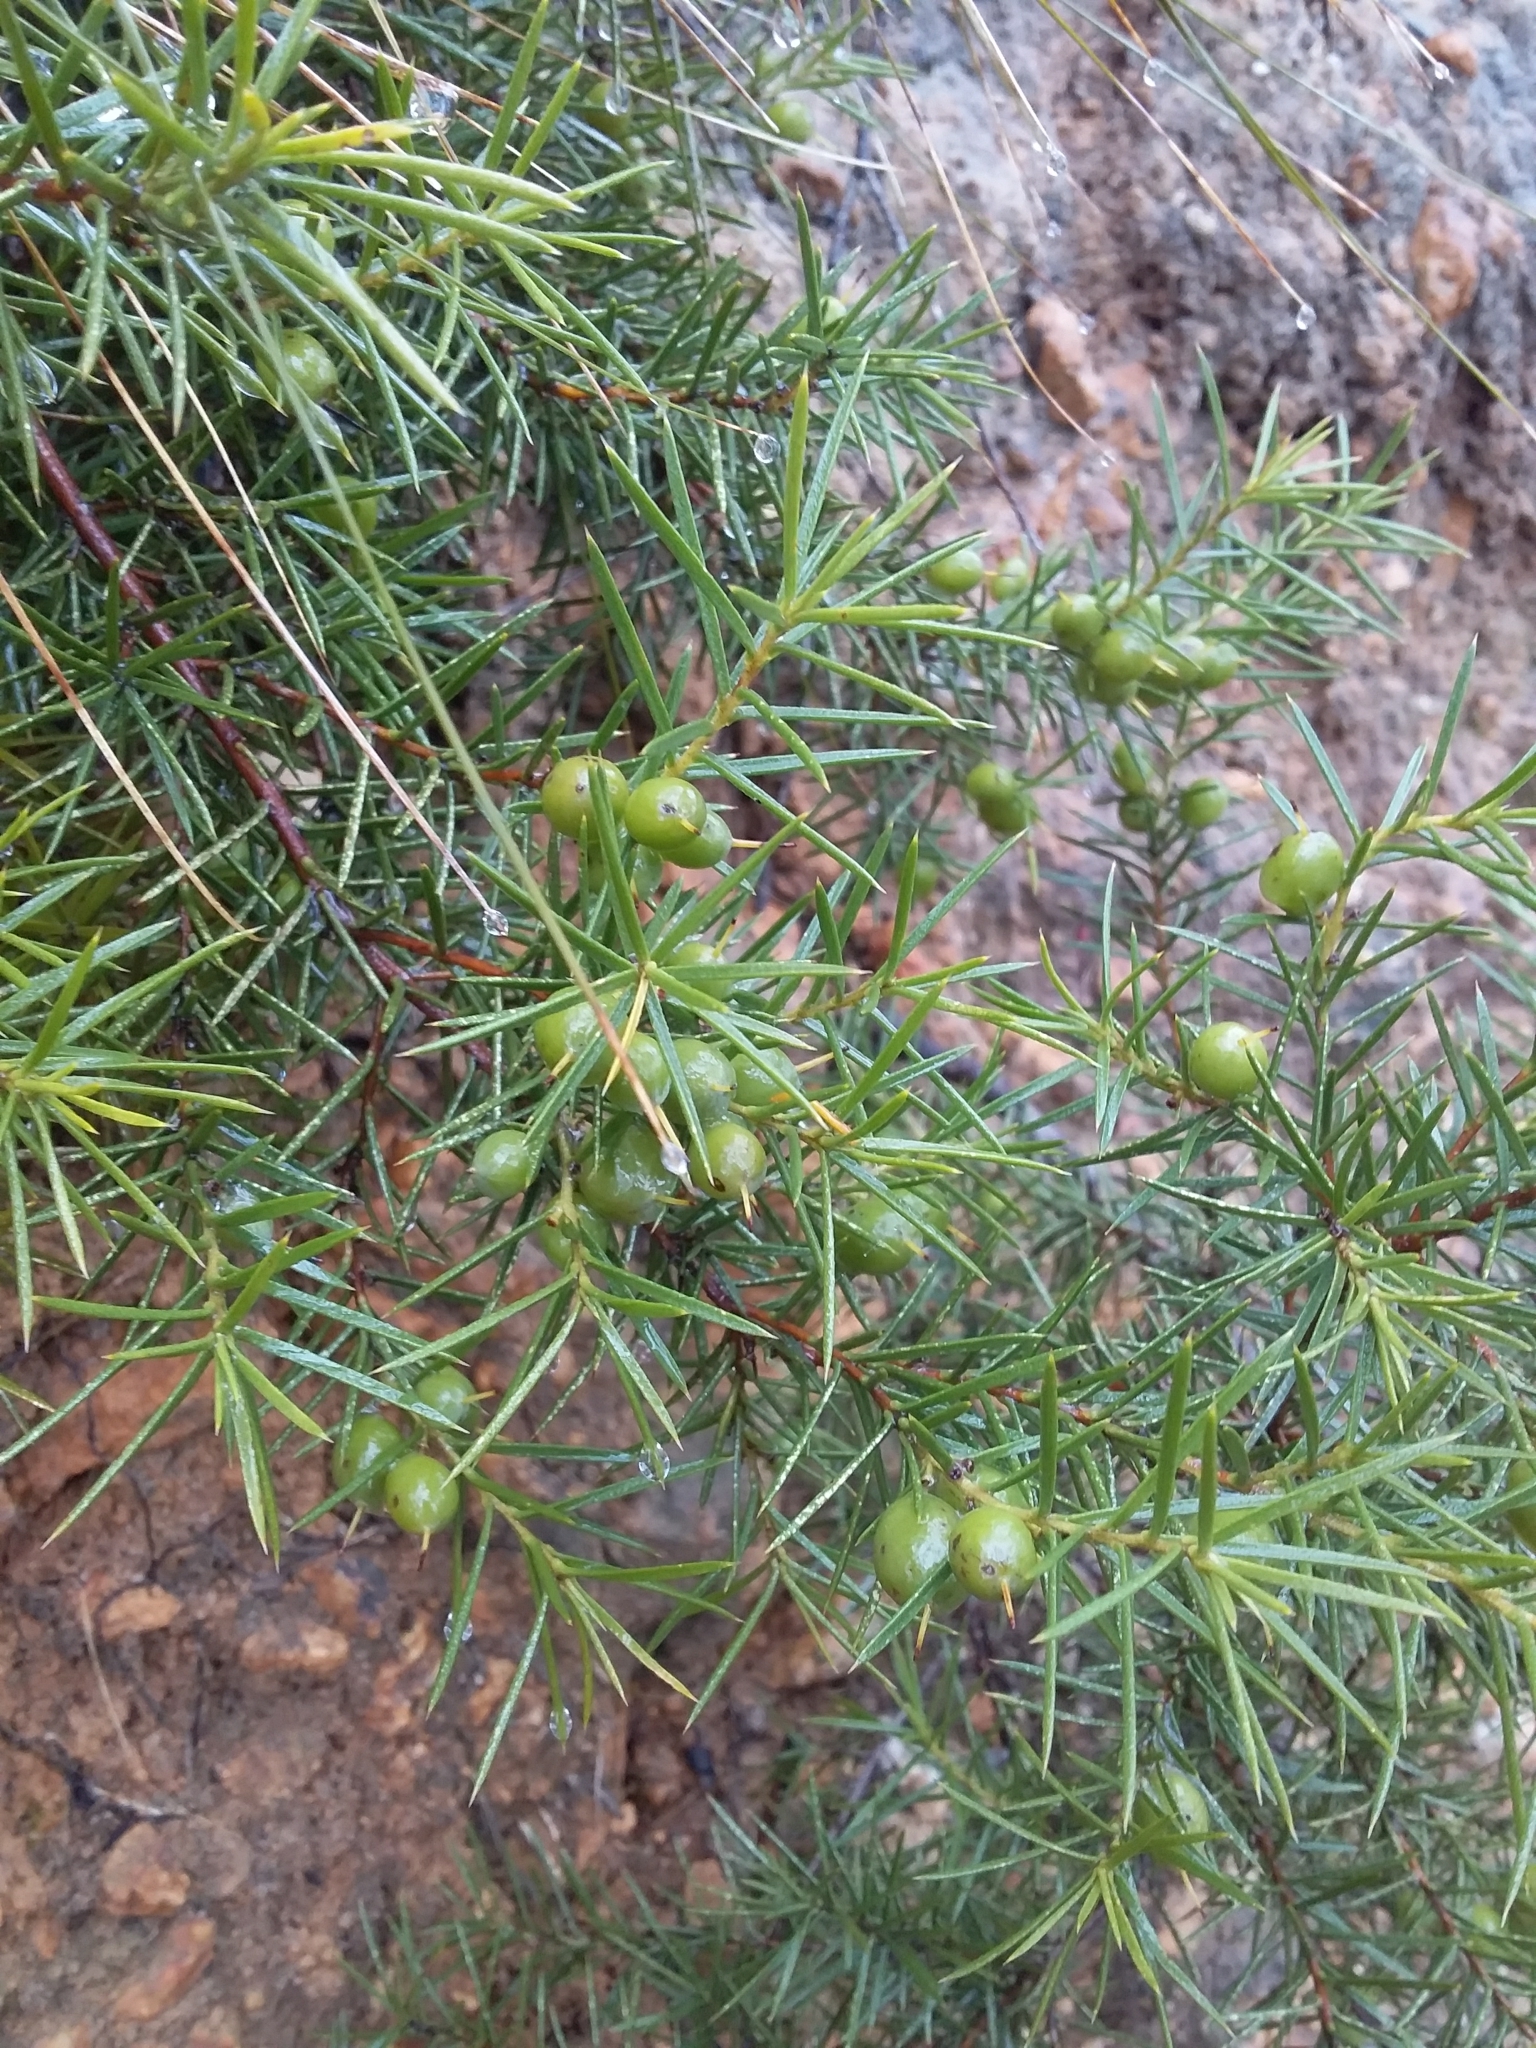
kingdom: Plantae
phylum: Tracheophyta
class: Magnoliopsida
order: Proteales
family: Proteaceae
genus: Persoonia
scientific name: Persoonia juniperina
